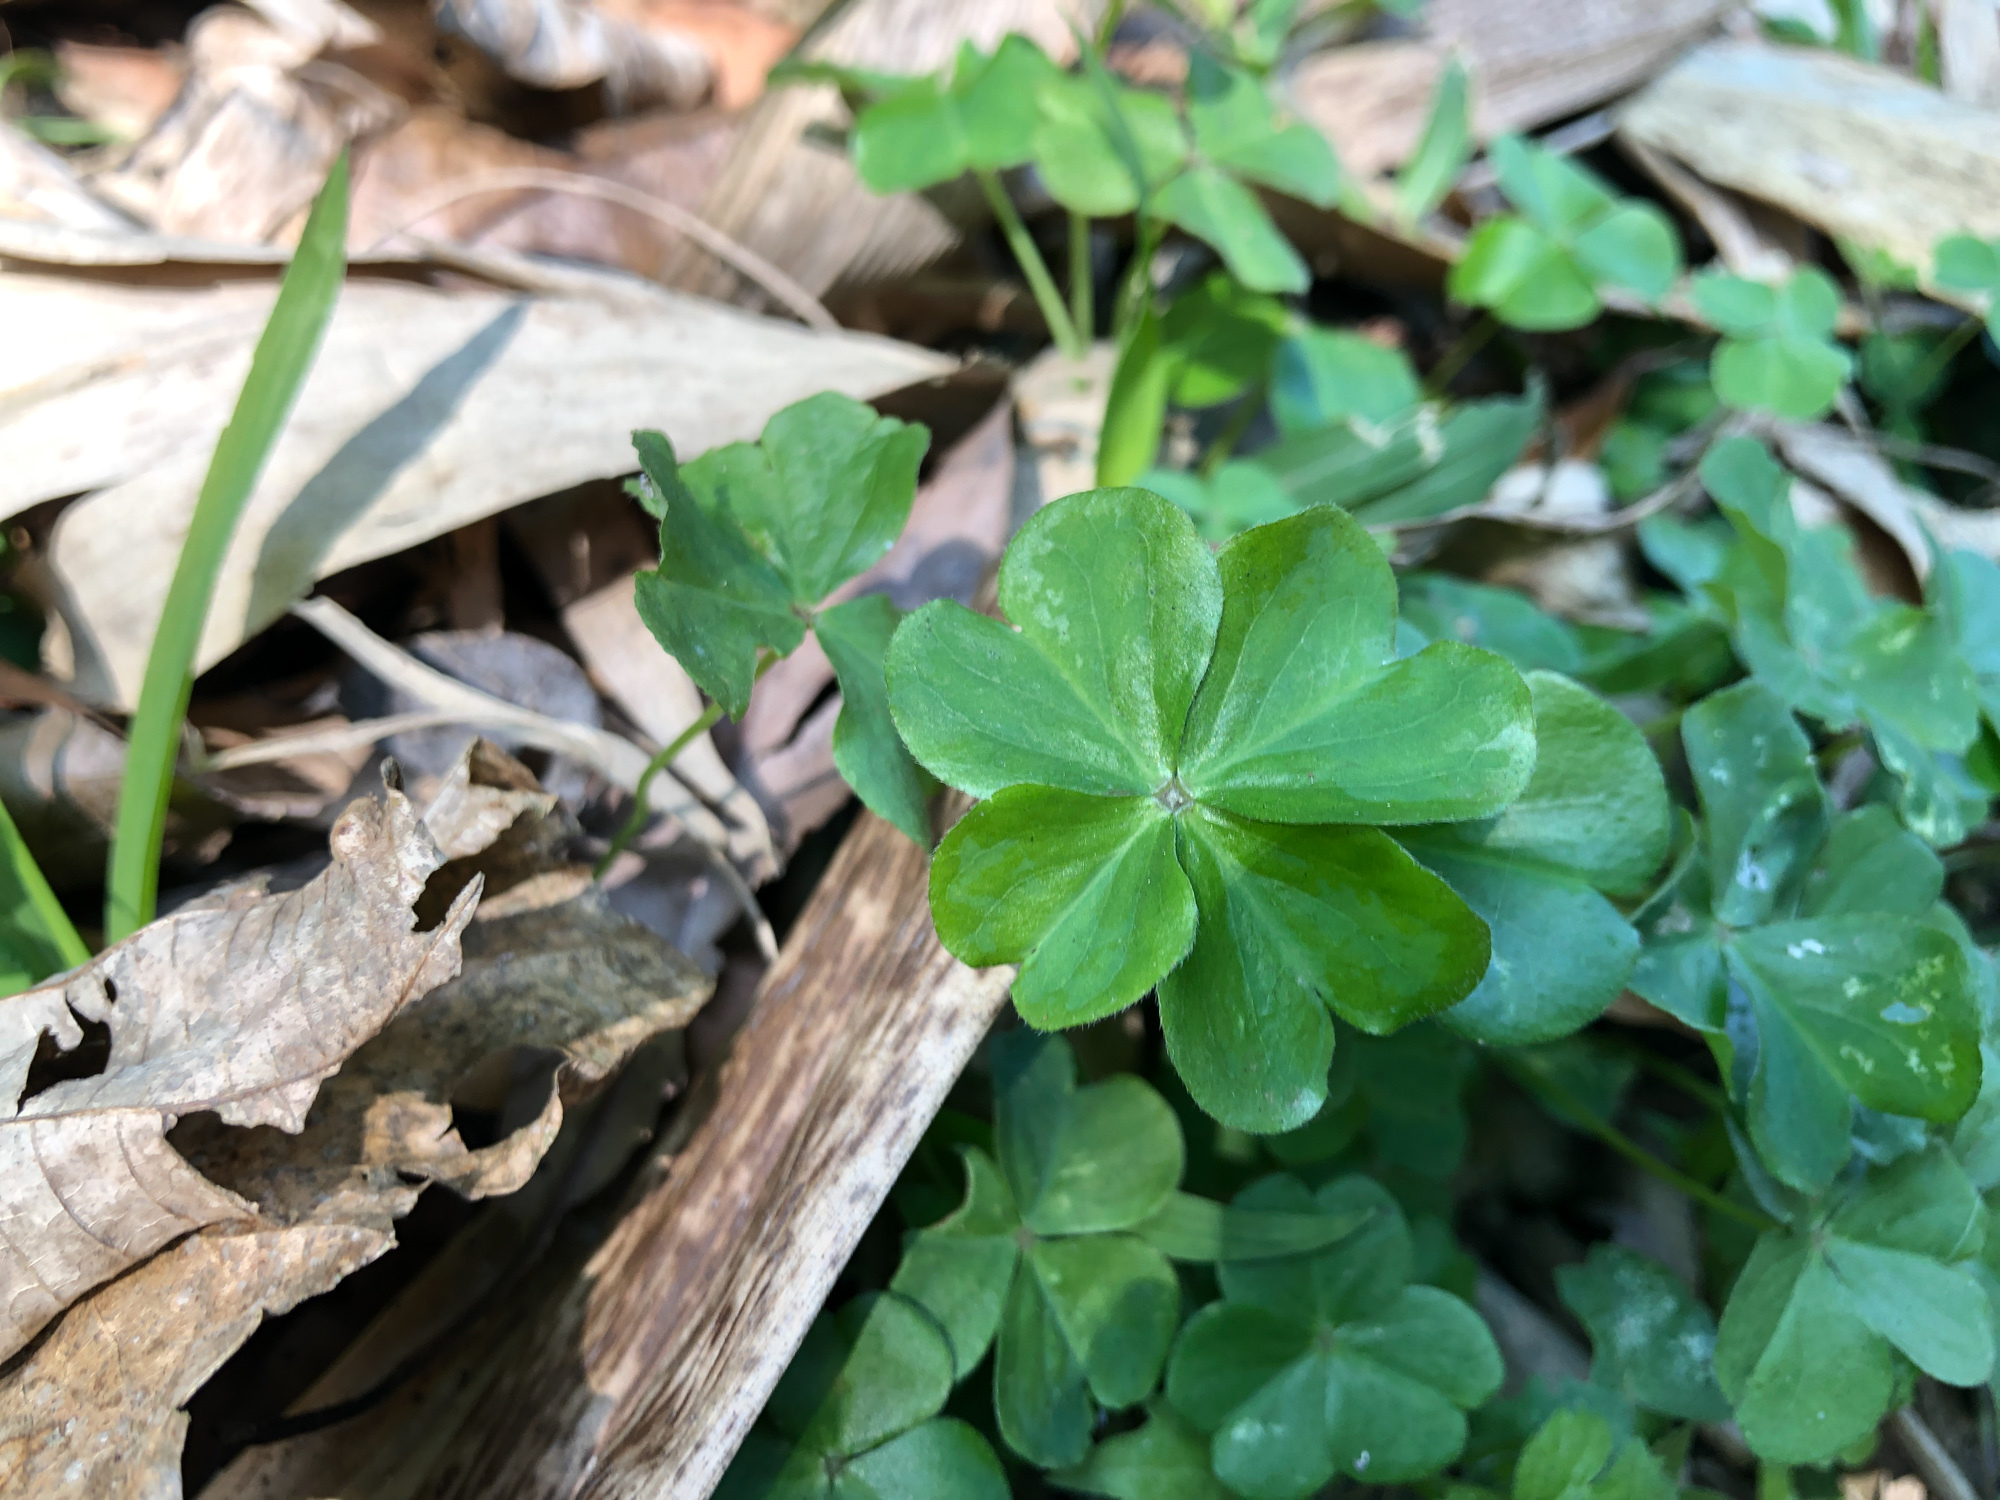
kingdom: Plantae
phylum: Tracheophyta
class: Magnoliopsida
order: Oxalidales
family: Oxalidaceae
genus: Oxalis
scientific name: Oxalis debilis
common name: Large-flowered pink-sorrel
